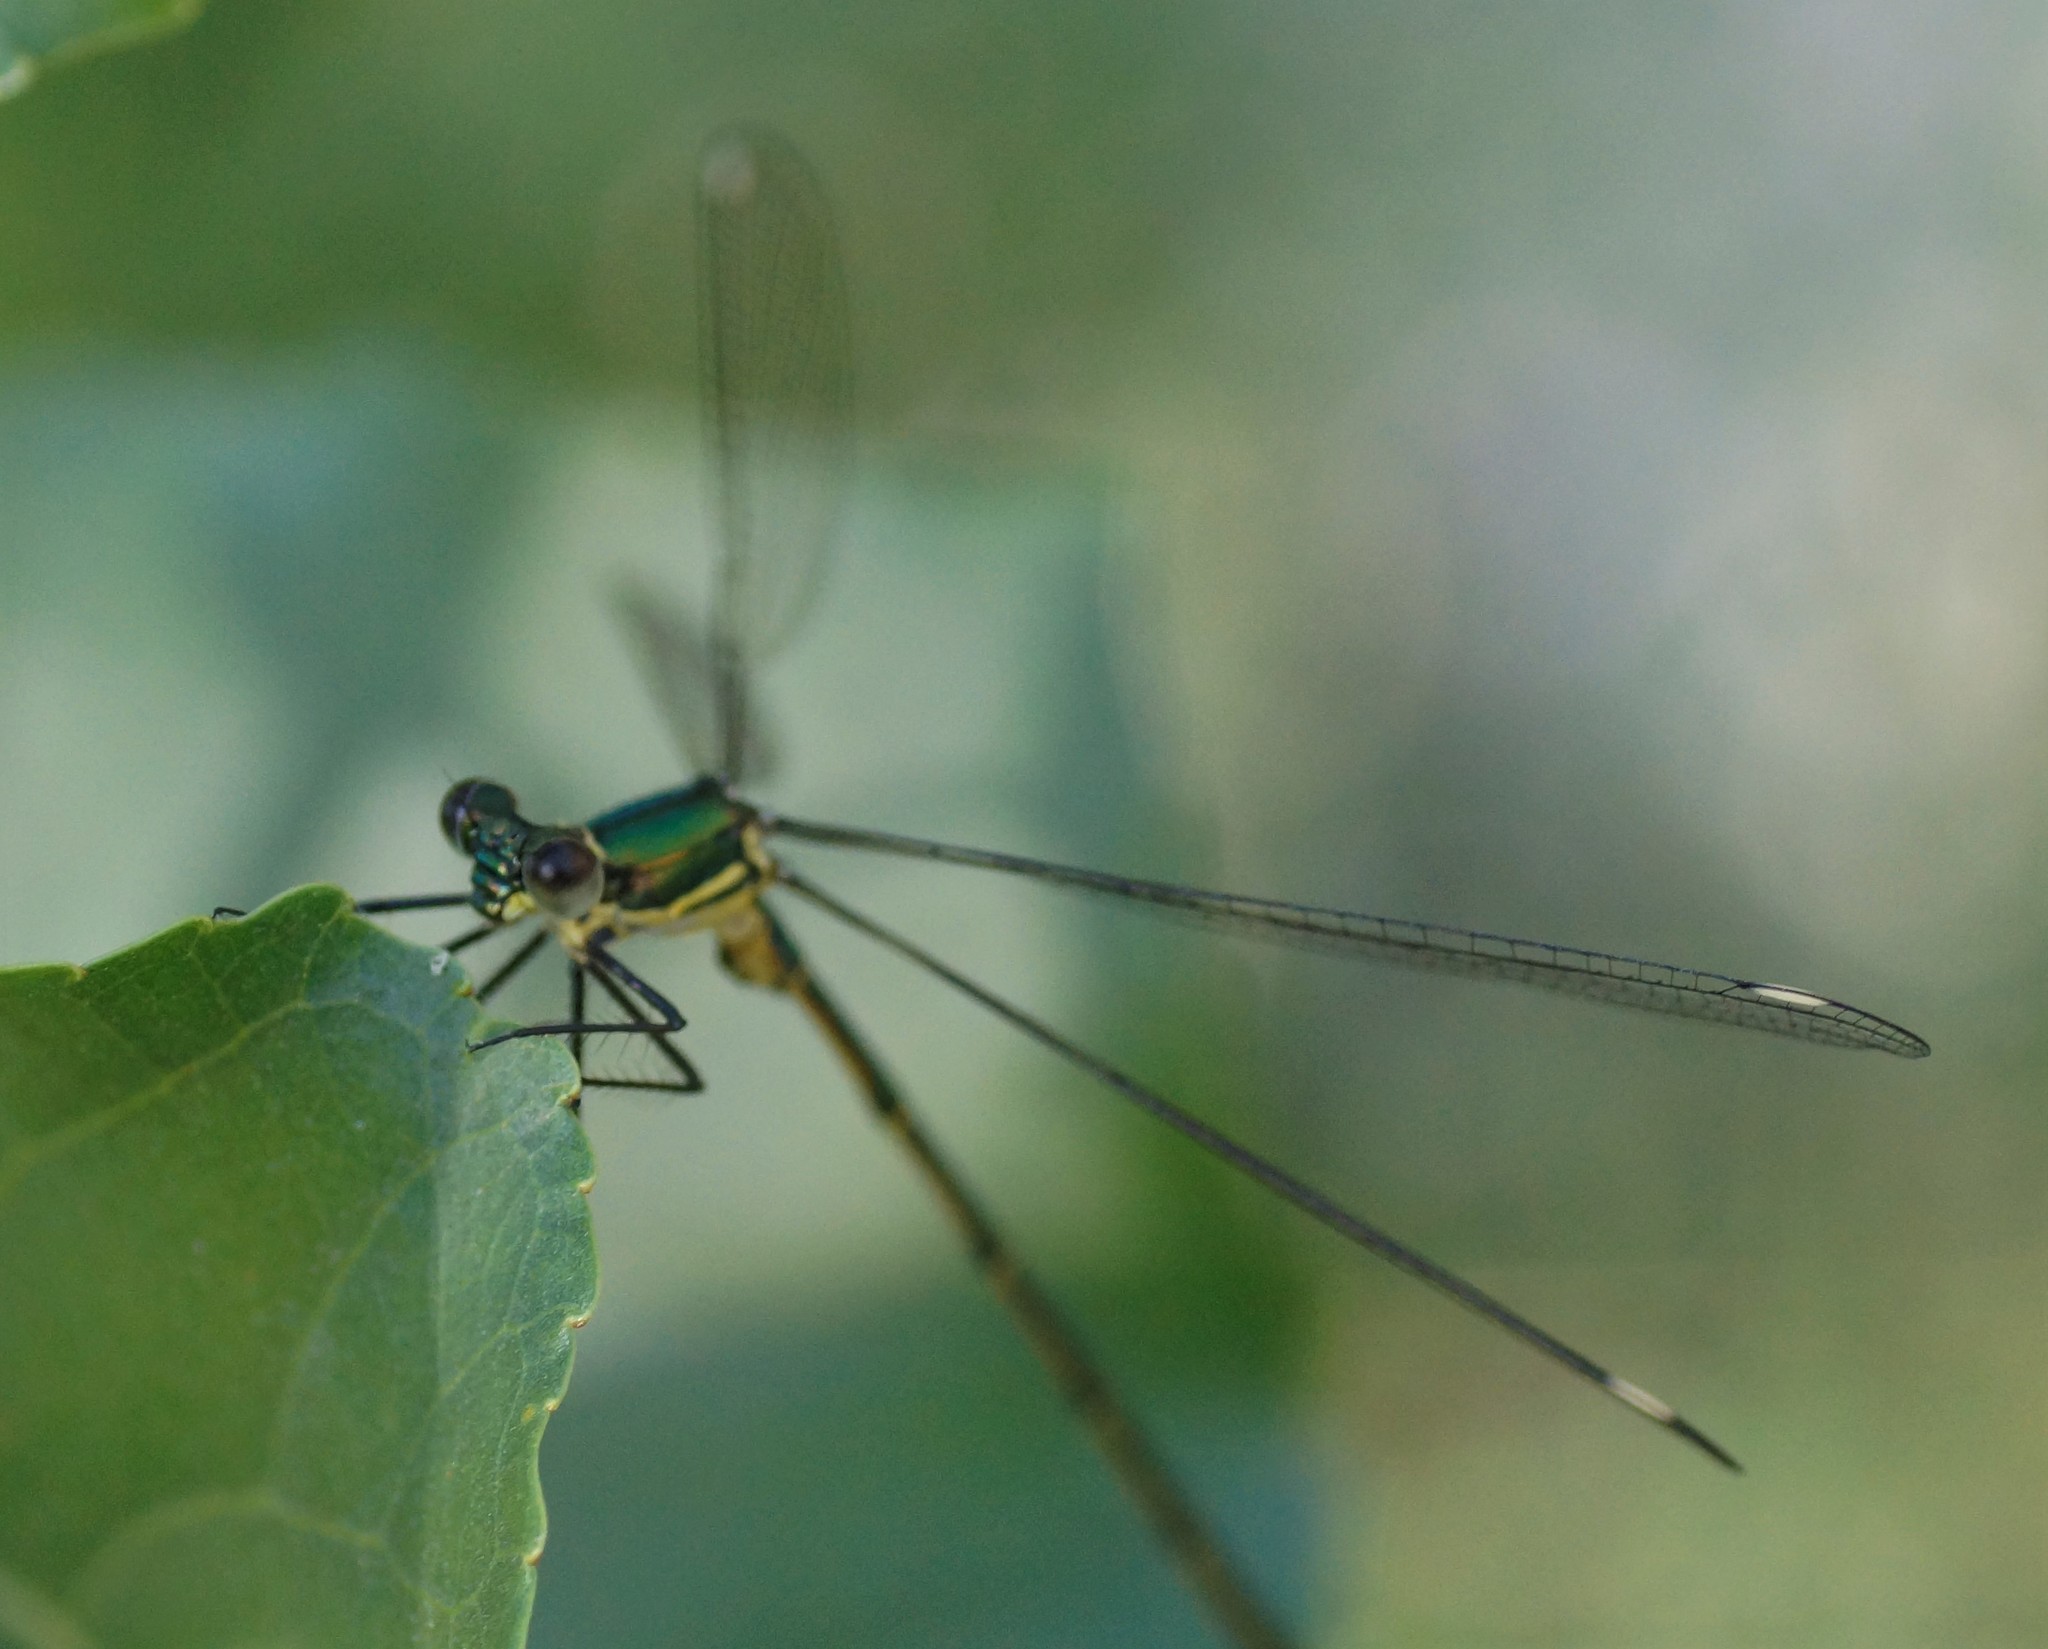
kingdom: Animalia
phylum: Arthropoda
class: Insecta
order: Odonata
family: Synlestidae
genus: Synlestes
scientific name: Synlestes weyersii
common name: Bronze needle
